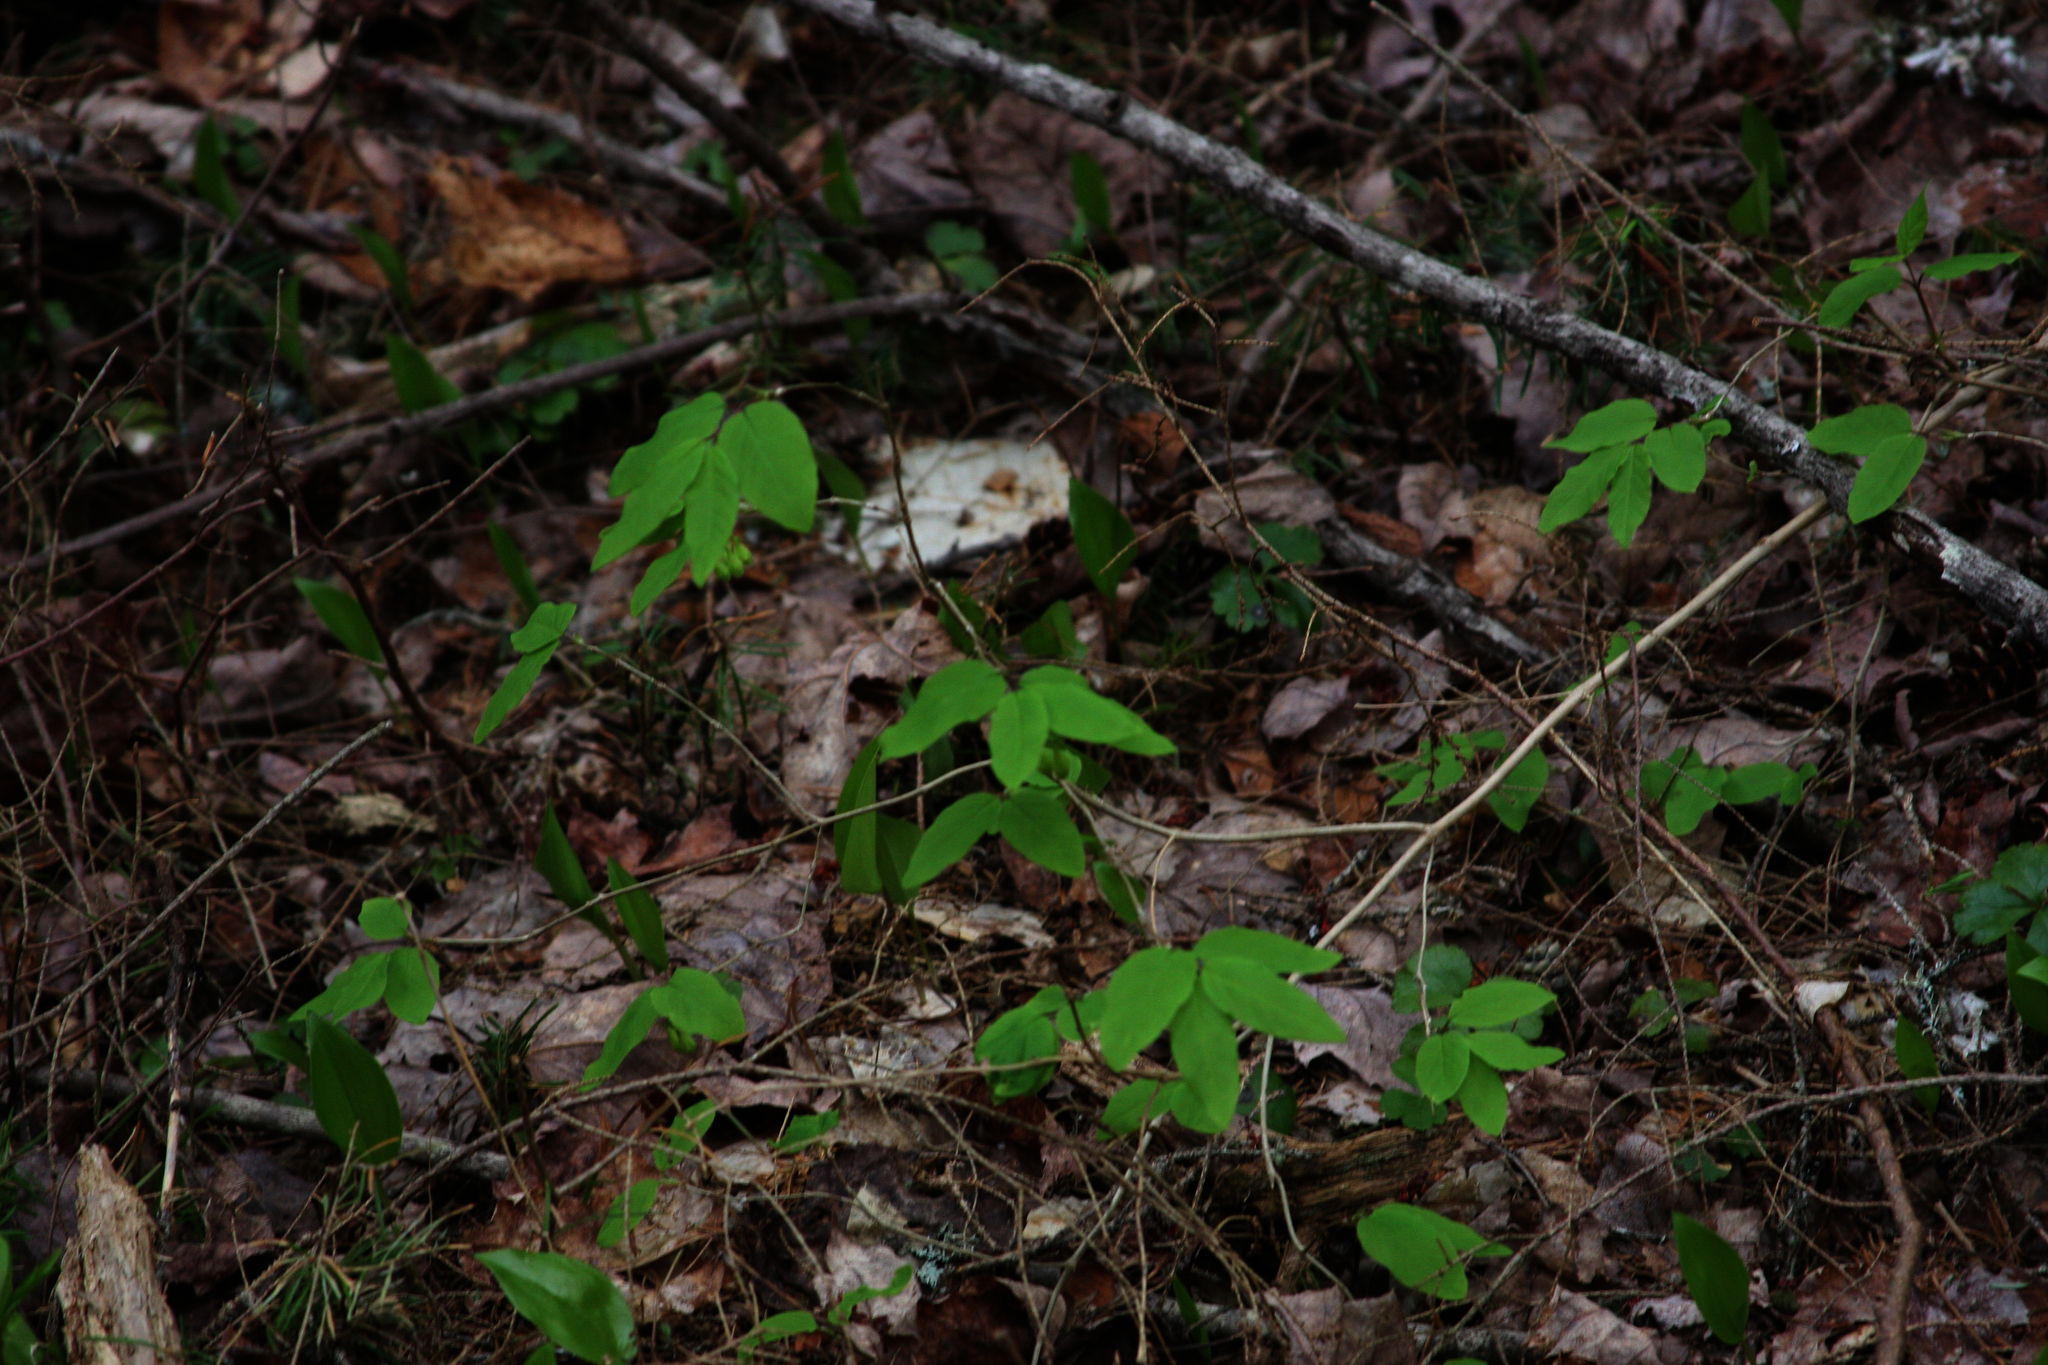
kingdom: Plantae
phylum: Tracheophyta
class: Magnoliopsida
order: Dipsacales
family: Caprifoliaceae
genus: Lonicera
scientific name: Lonicera canadensis
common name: American fly-honeysuckle
